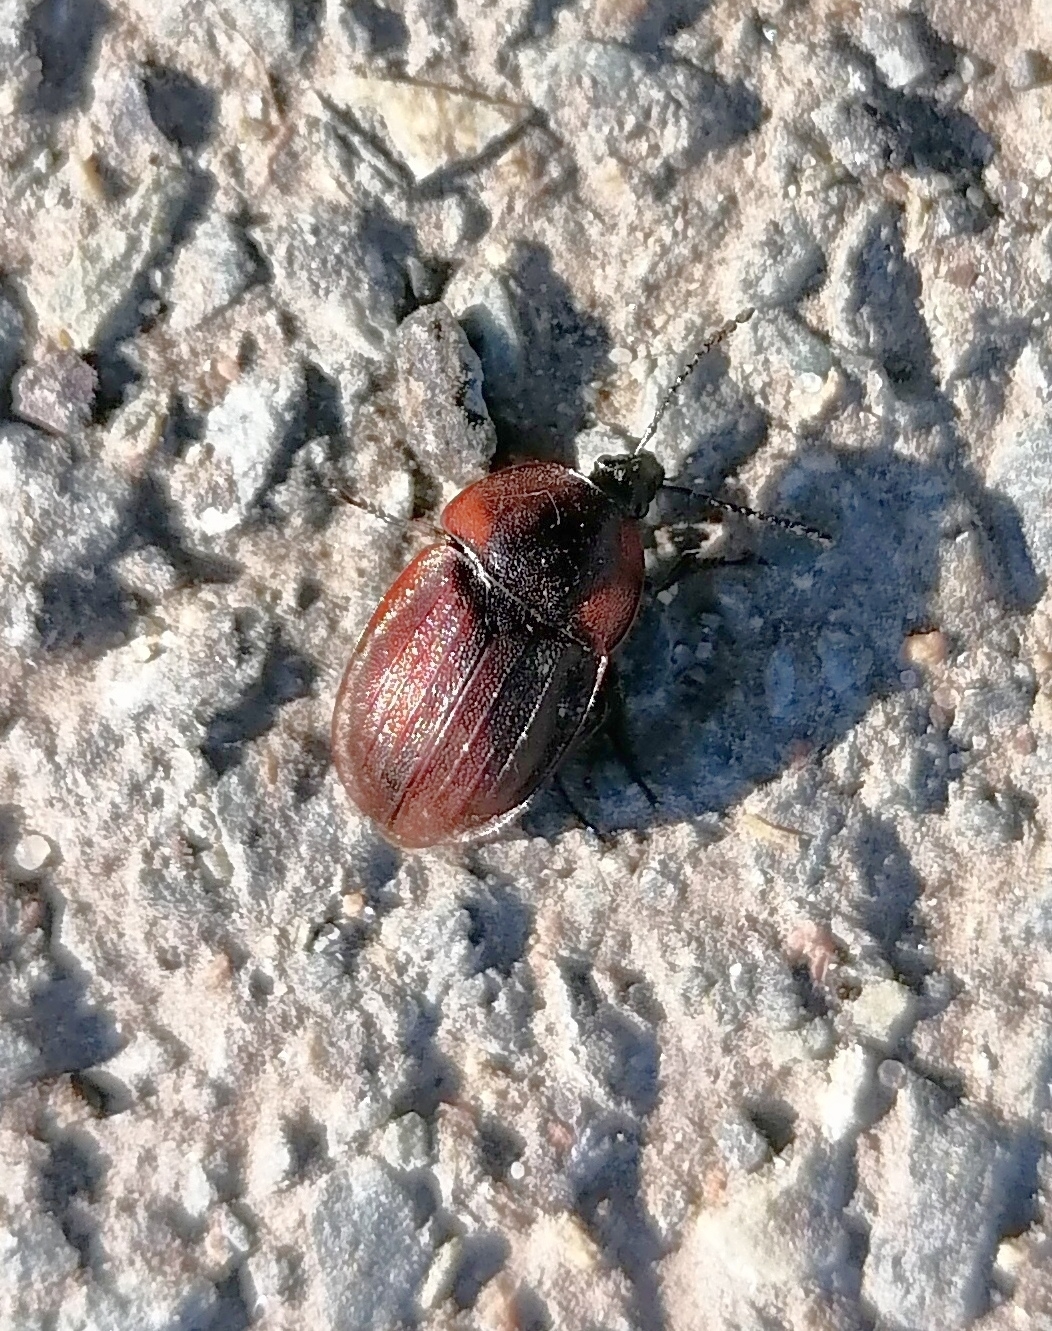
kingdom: Animalia
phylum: Arthropoda
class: Insecta
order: Coleoptera
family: Staphylinidae
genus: Silpha
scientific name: Silpha atrata
